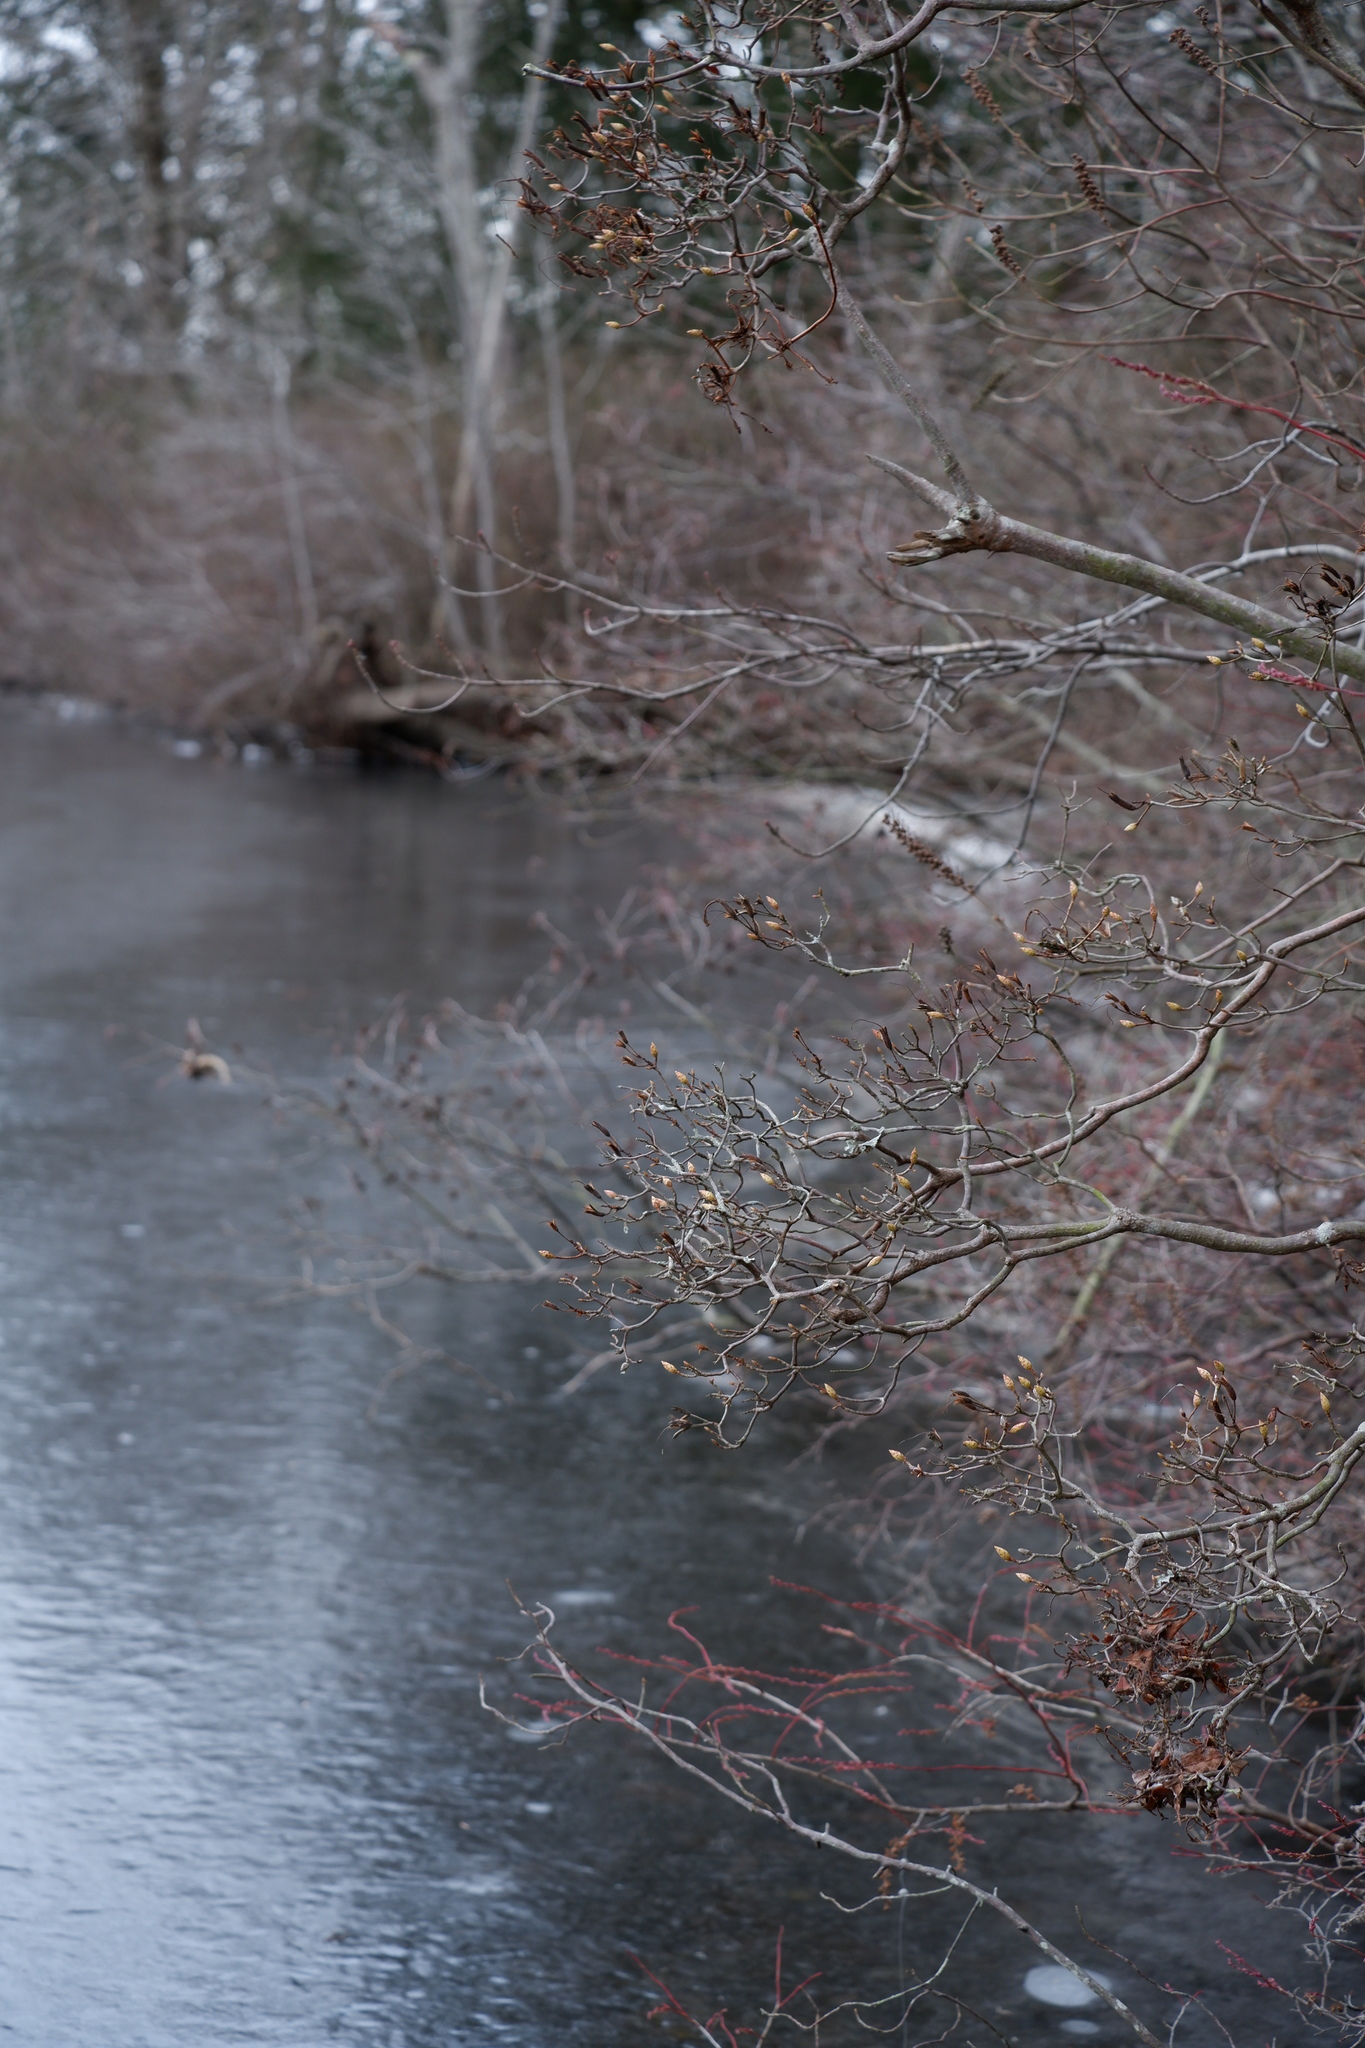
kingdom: Plantae
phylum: Tracheophyta
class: Magnoliopsida
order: Ericales
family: Ericaceae
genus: Rhododendron
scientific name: Rhododendron viscosum
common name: Clammy azalea
